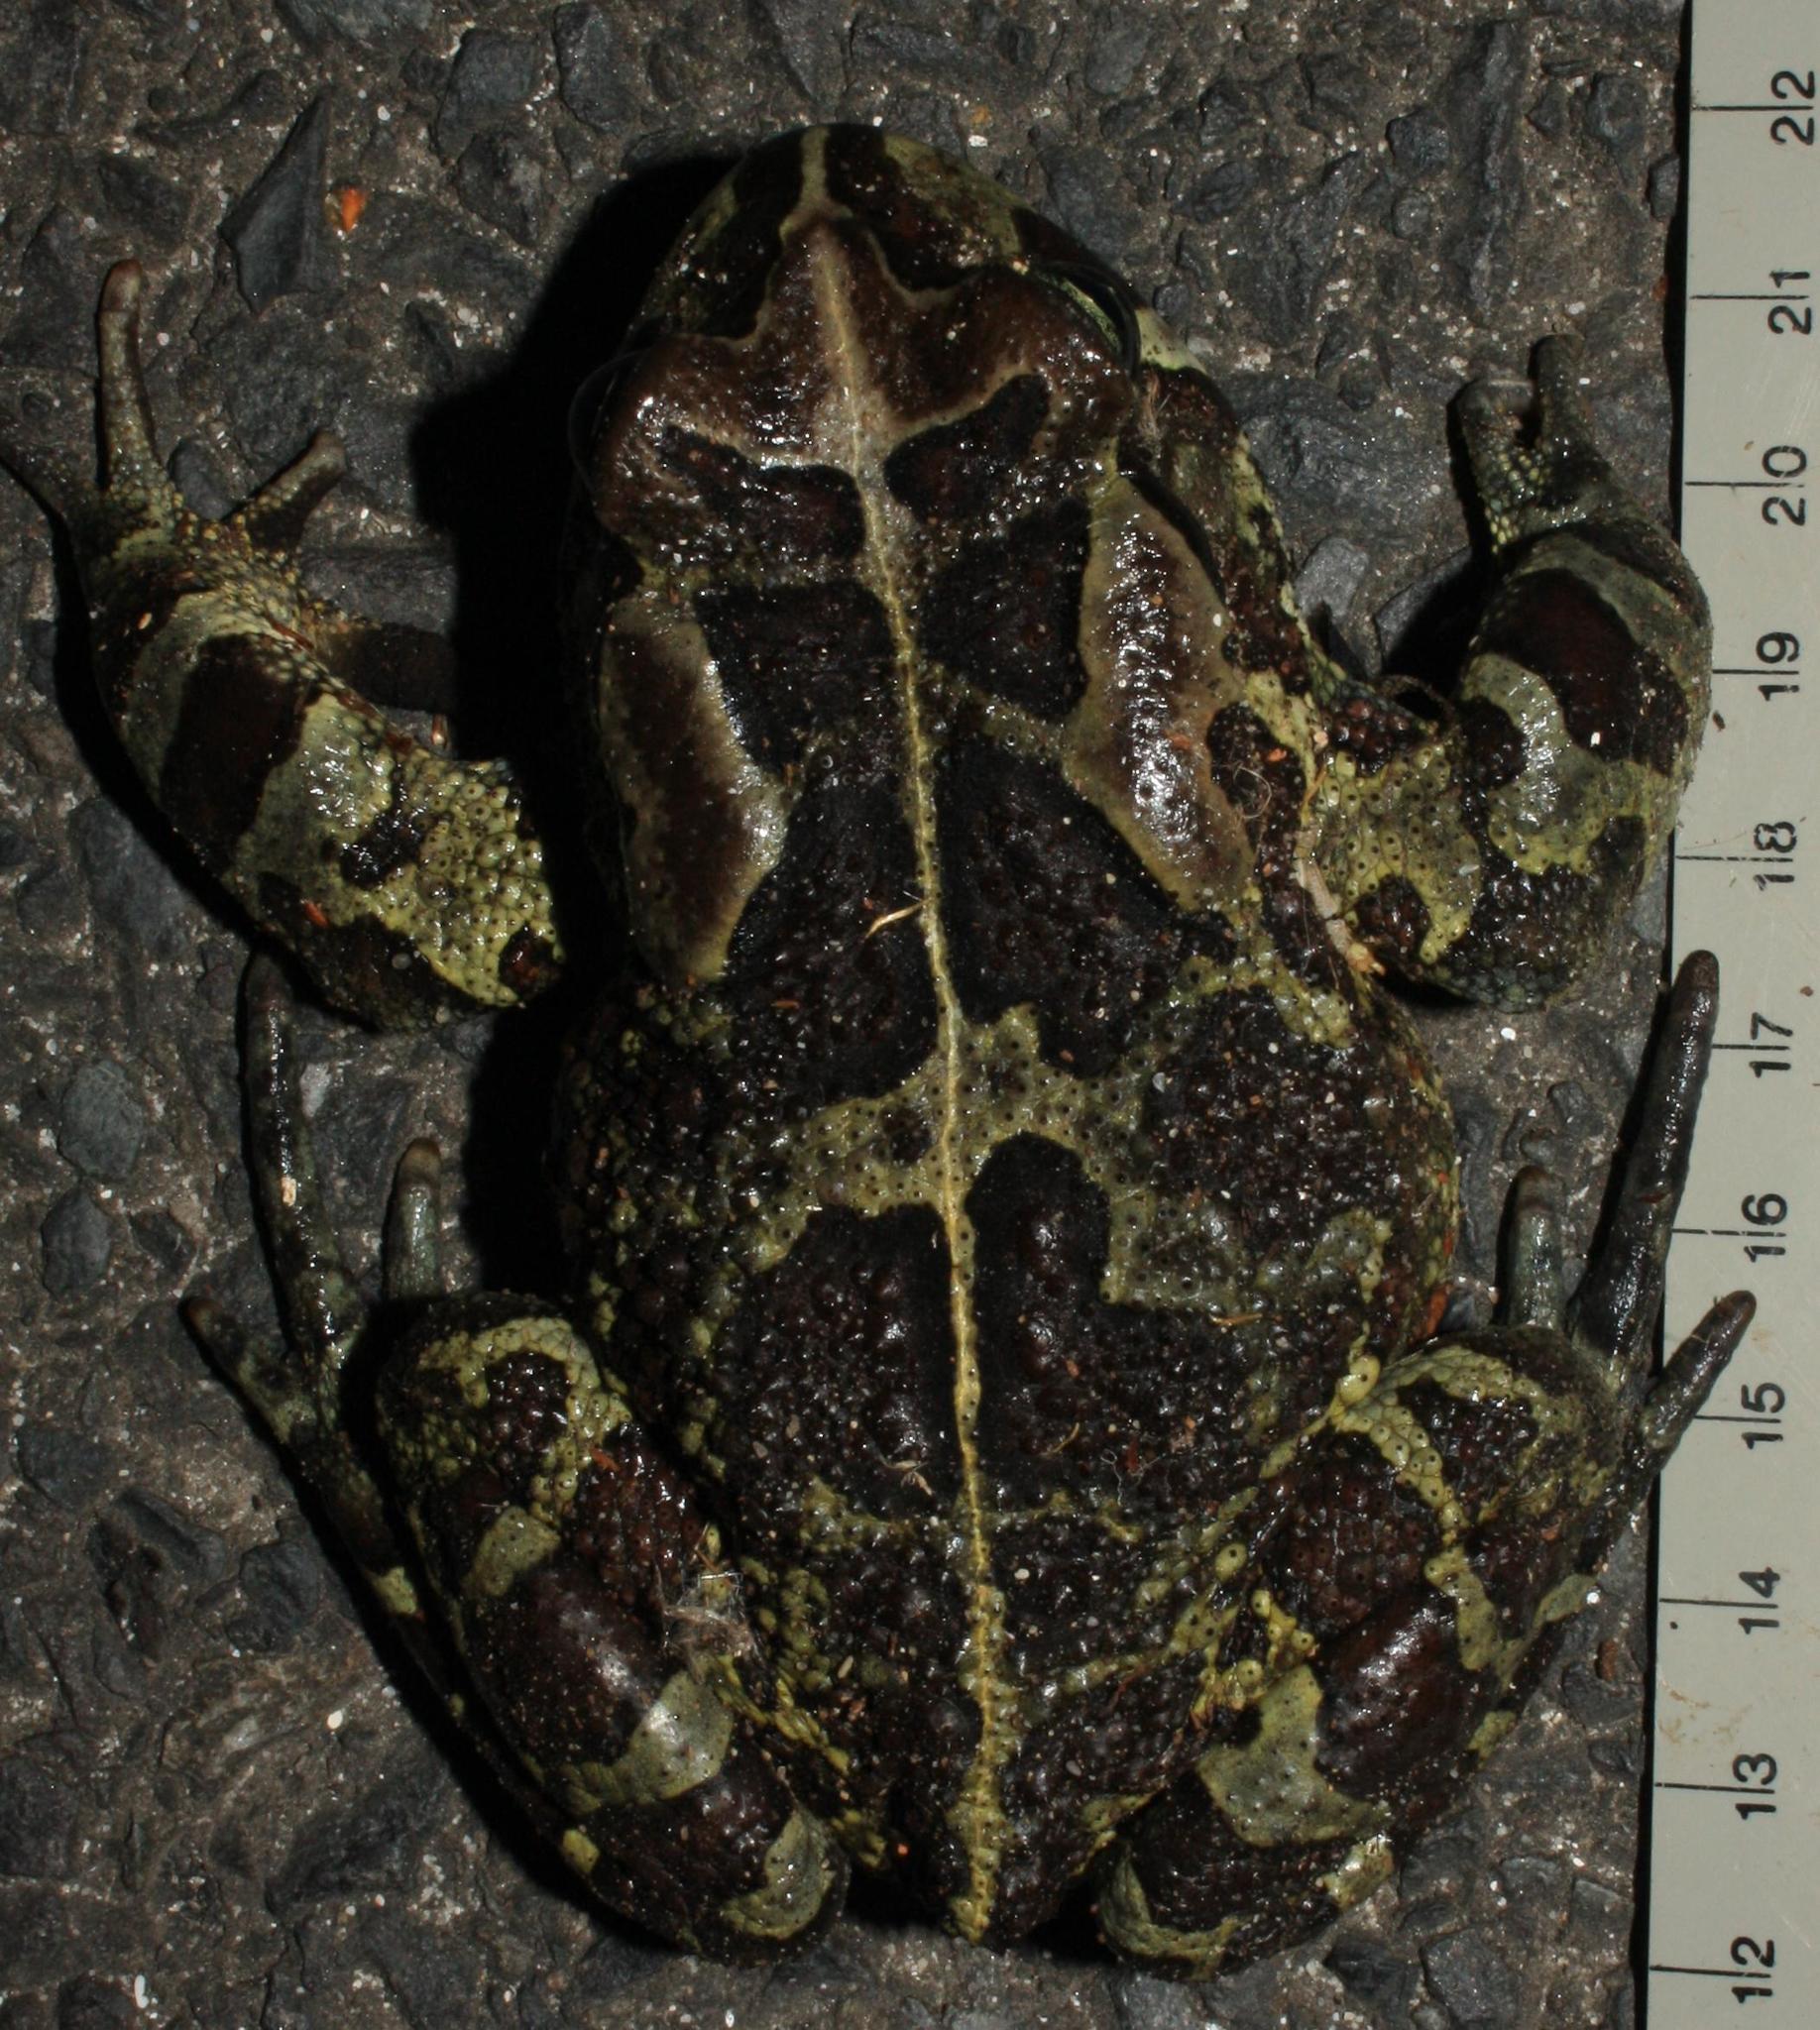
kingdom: Animalia
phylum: Chordata
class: Amphibia
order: Anura
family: Bufonidae
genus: Sclerophrys
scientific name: Sclerophrys pantherina
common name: Panther toad
